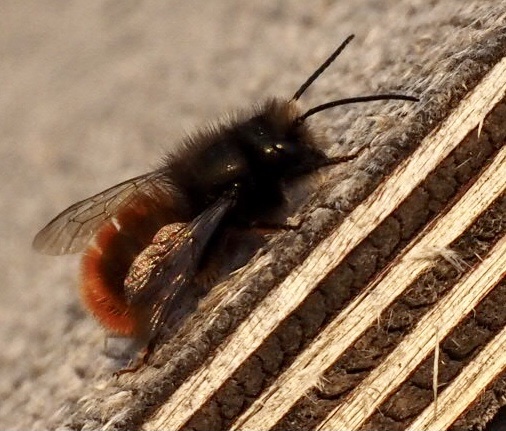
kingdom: Animalia
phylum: Arthropoda
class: Insecta
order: Hymenoptera
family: Megachilidae
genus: Osmia
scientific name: Osmia cornuta
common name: Mason bee
